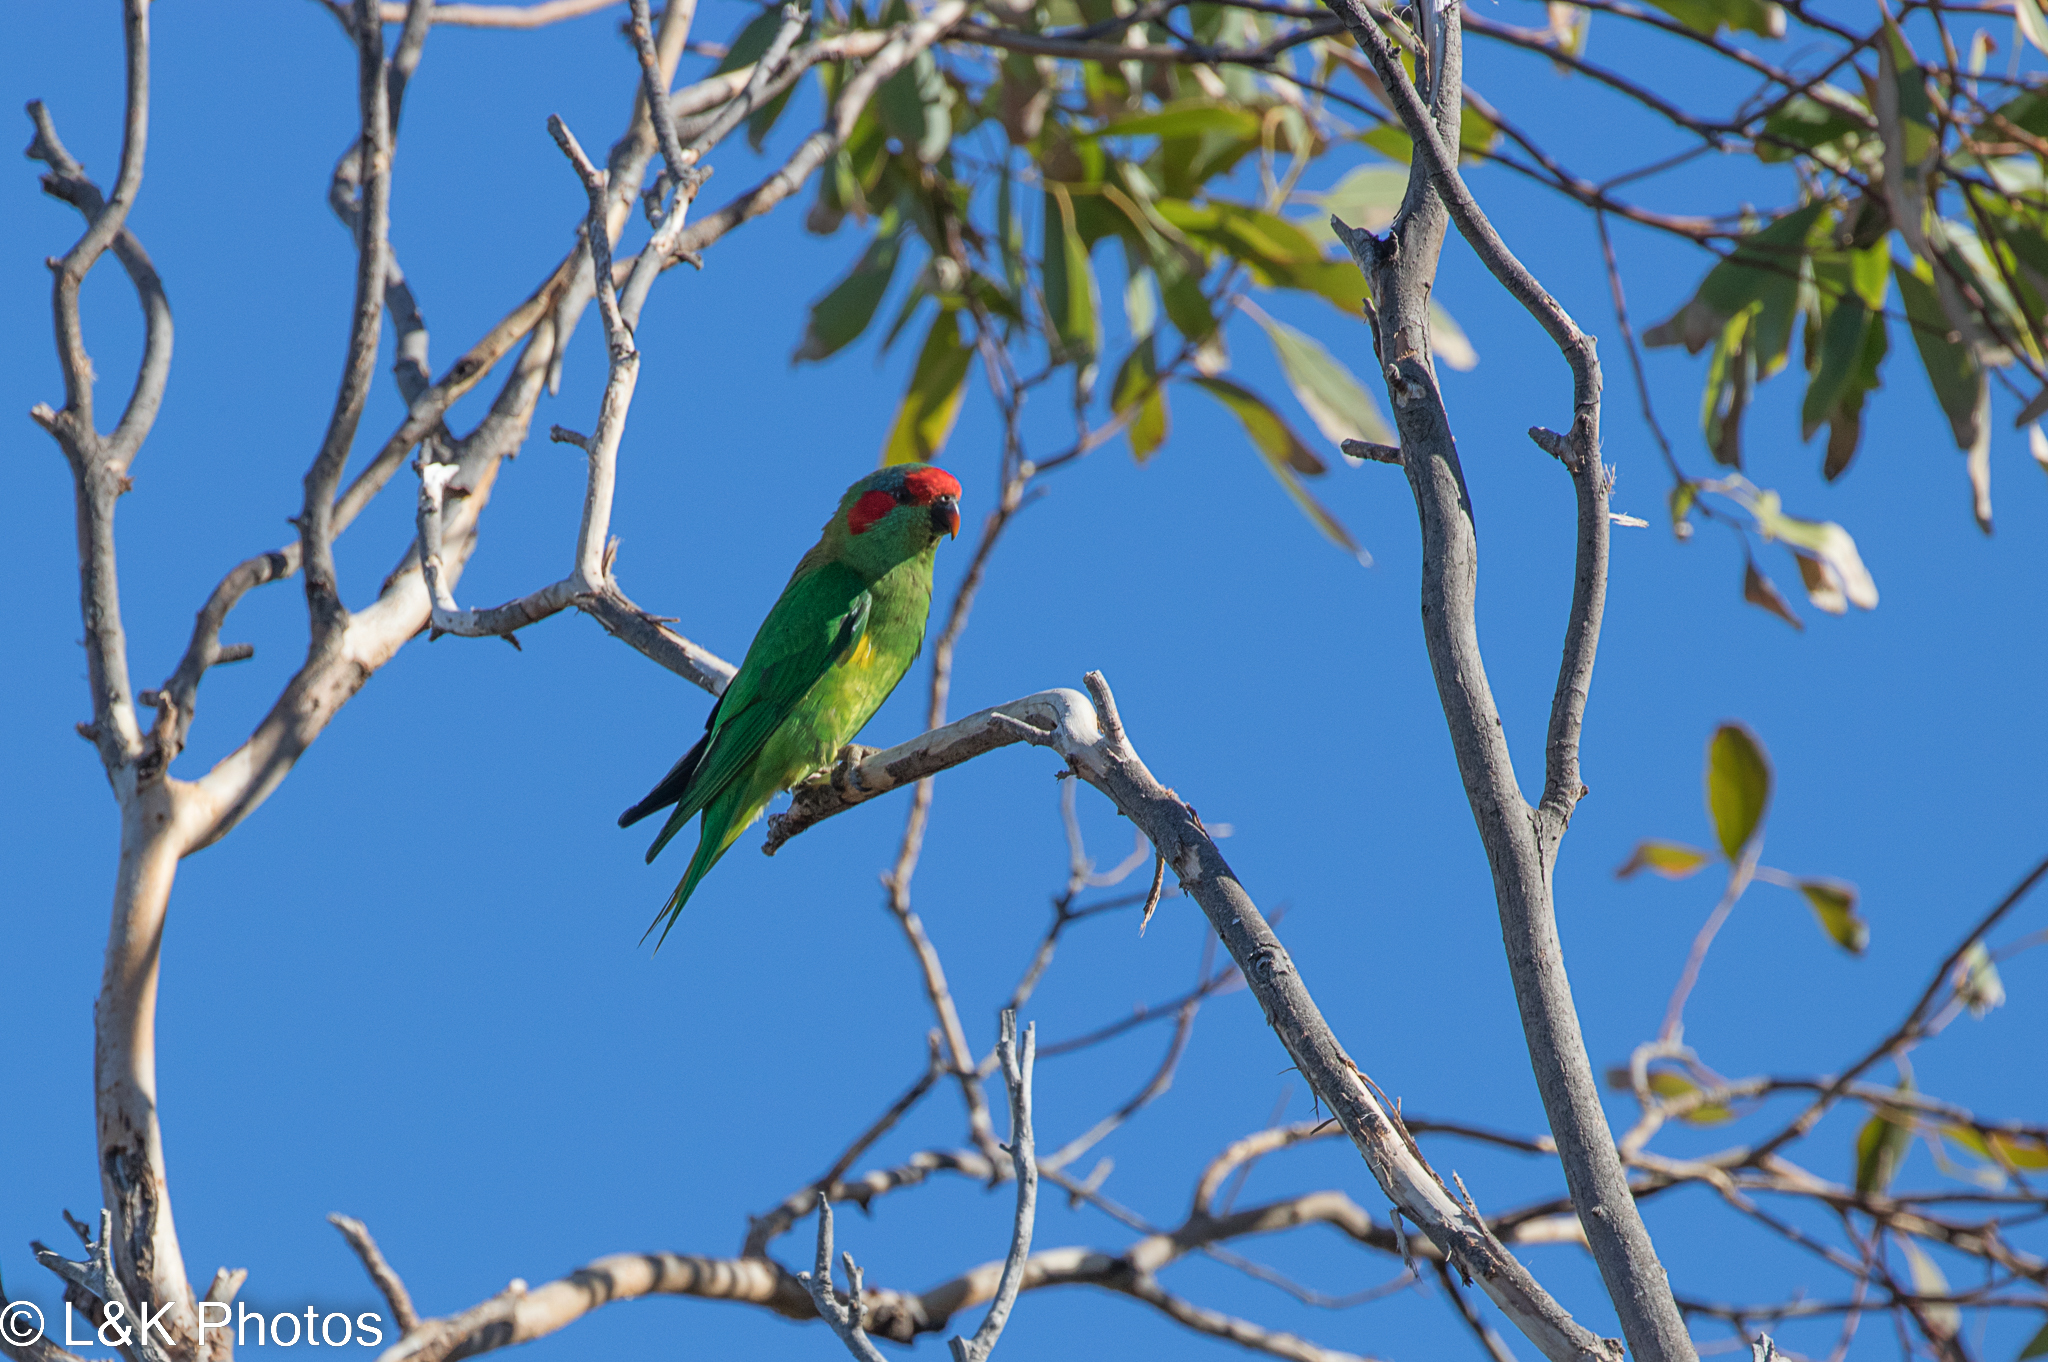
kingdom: Animalia
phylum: Chordata
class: Aves
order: Psittaciformes
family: Psittacidae
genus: Glossopsitta
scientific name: Glossopsitta concinna
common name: Musk lorikeet
